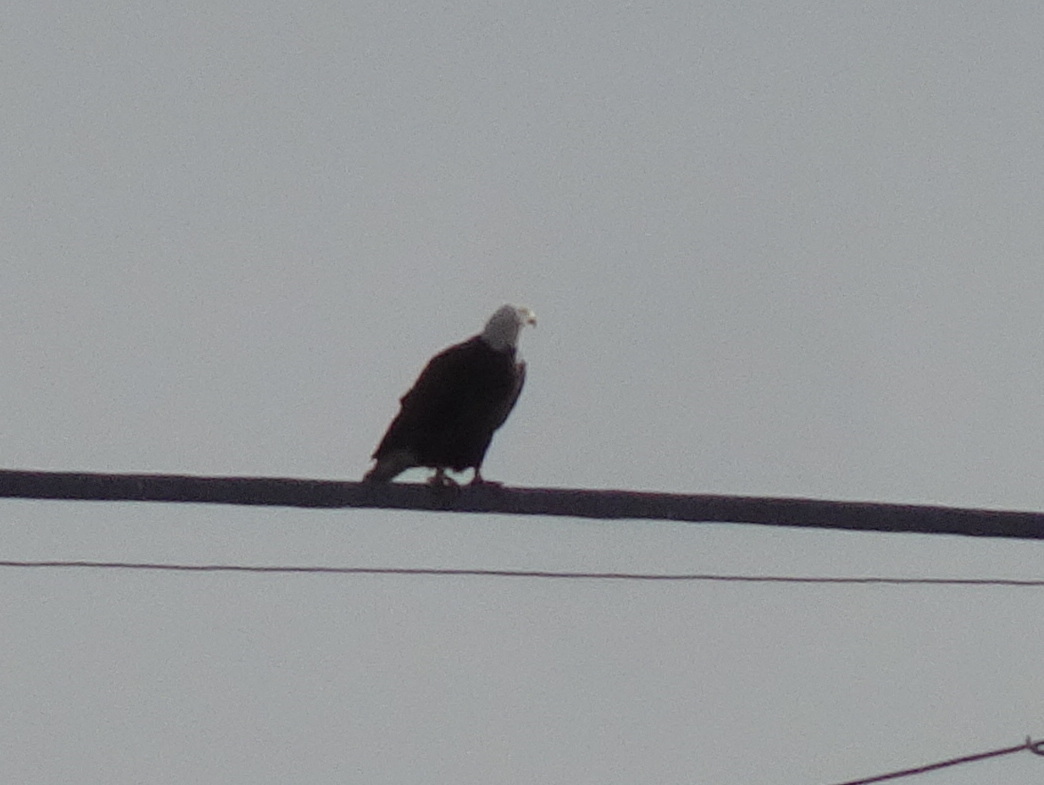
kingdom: Animalia
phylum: Chordata
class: Aves
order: Accipitriformes
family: Accipitridae
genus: Haliaeetus
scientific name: Haliaeetus leucocephalus
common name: Bald eagle
